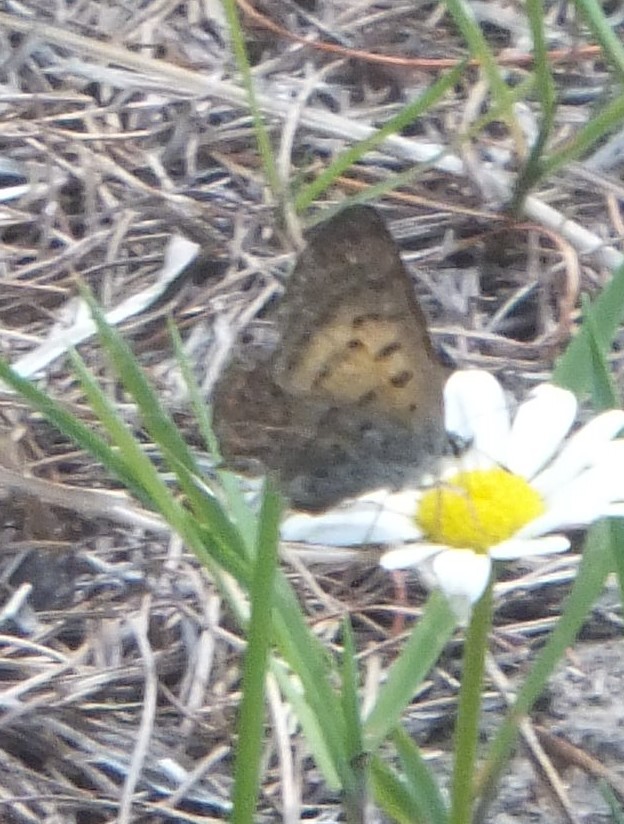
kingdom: Animalia
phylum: Arthropoda
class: Insecta
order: Lepidoptera
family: Lycaenidae
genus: Tharsalea
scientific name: Tharsalea mariposa
